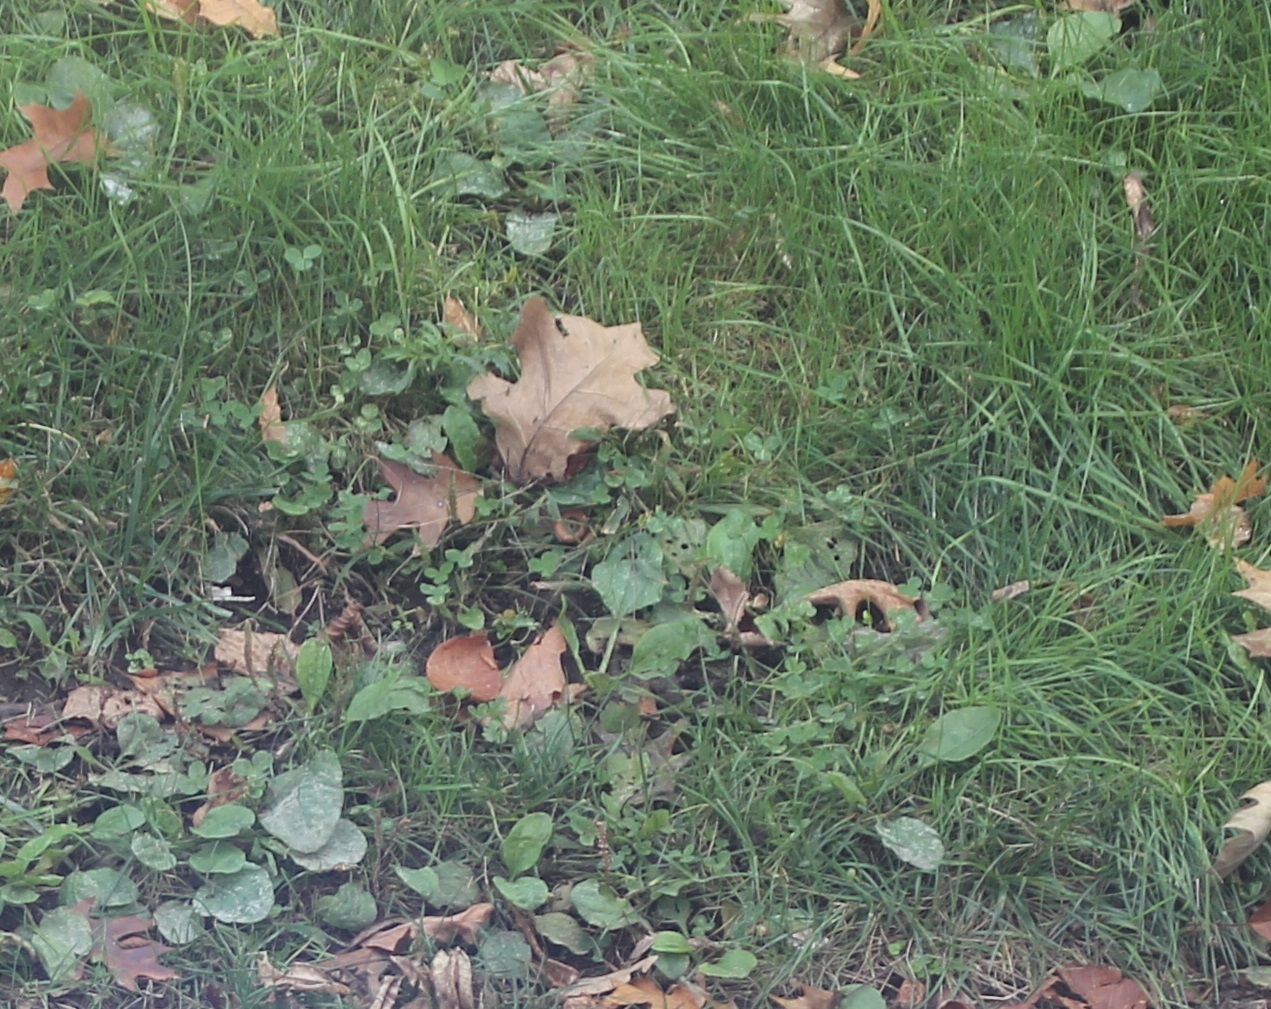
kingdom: Plantae
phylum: Tracheophyta
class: Magnoliopsida
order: Fabales
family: Fabaceae
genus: Trifolium
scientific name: Trifolium repens
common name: White clover
